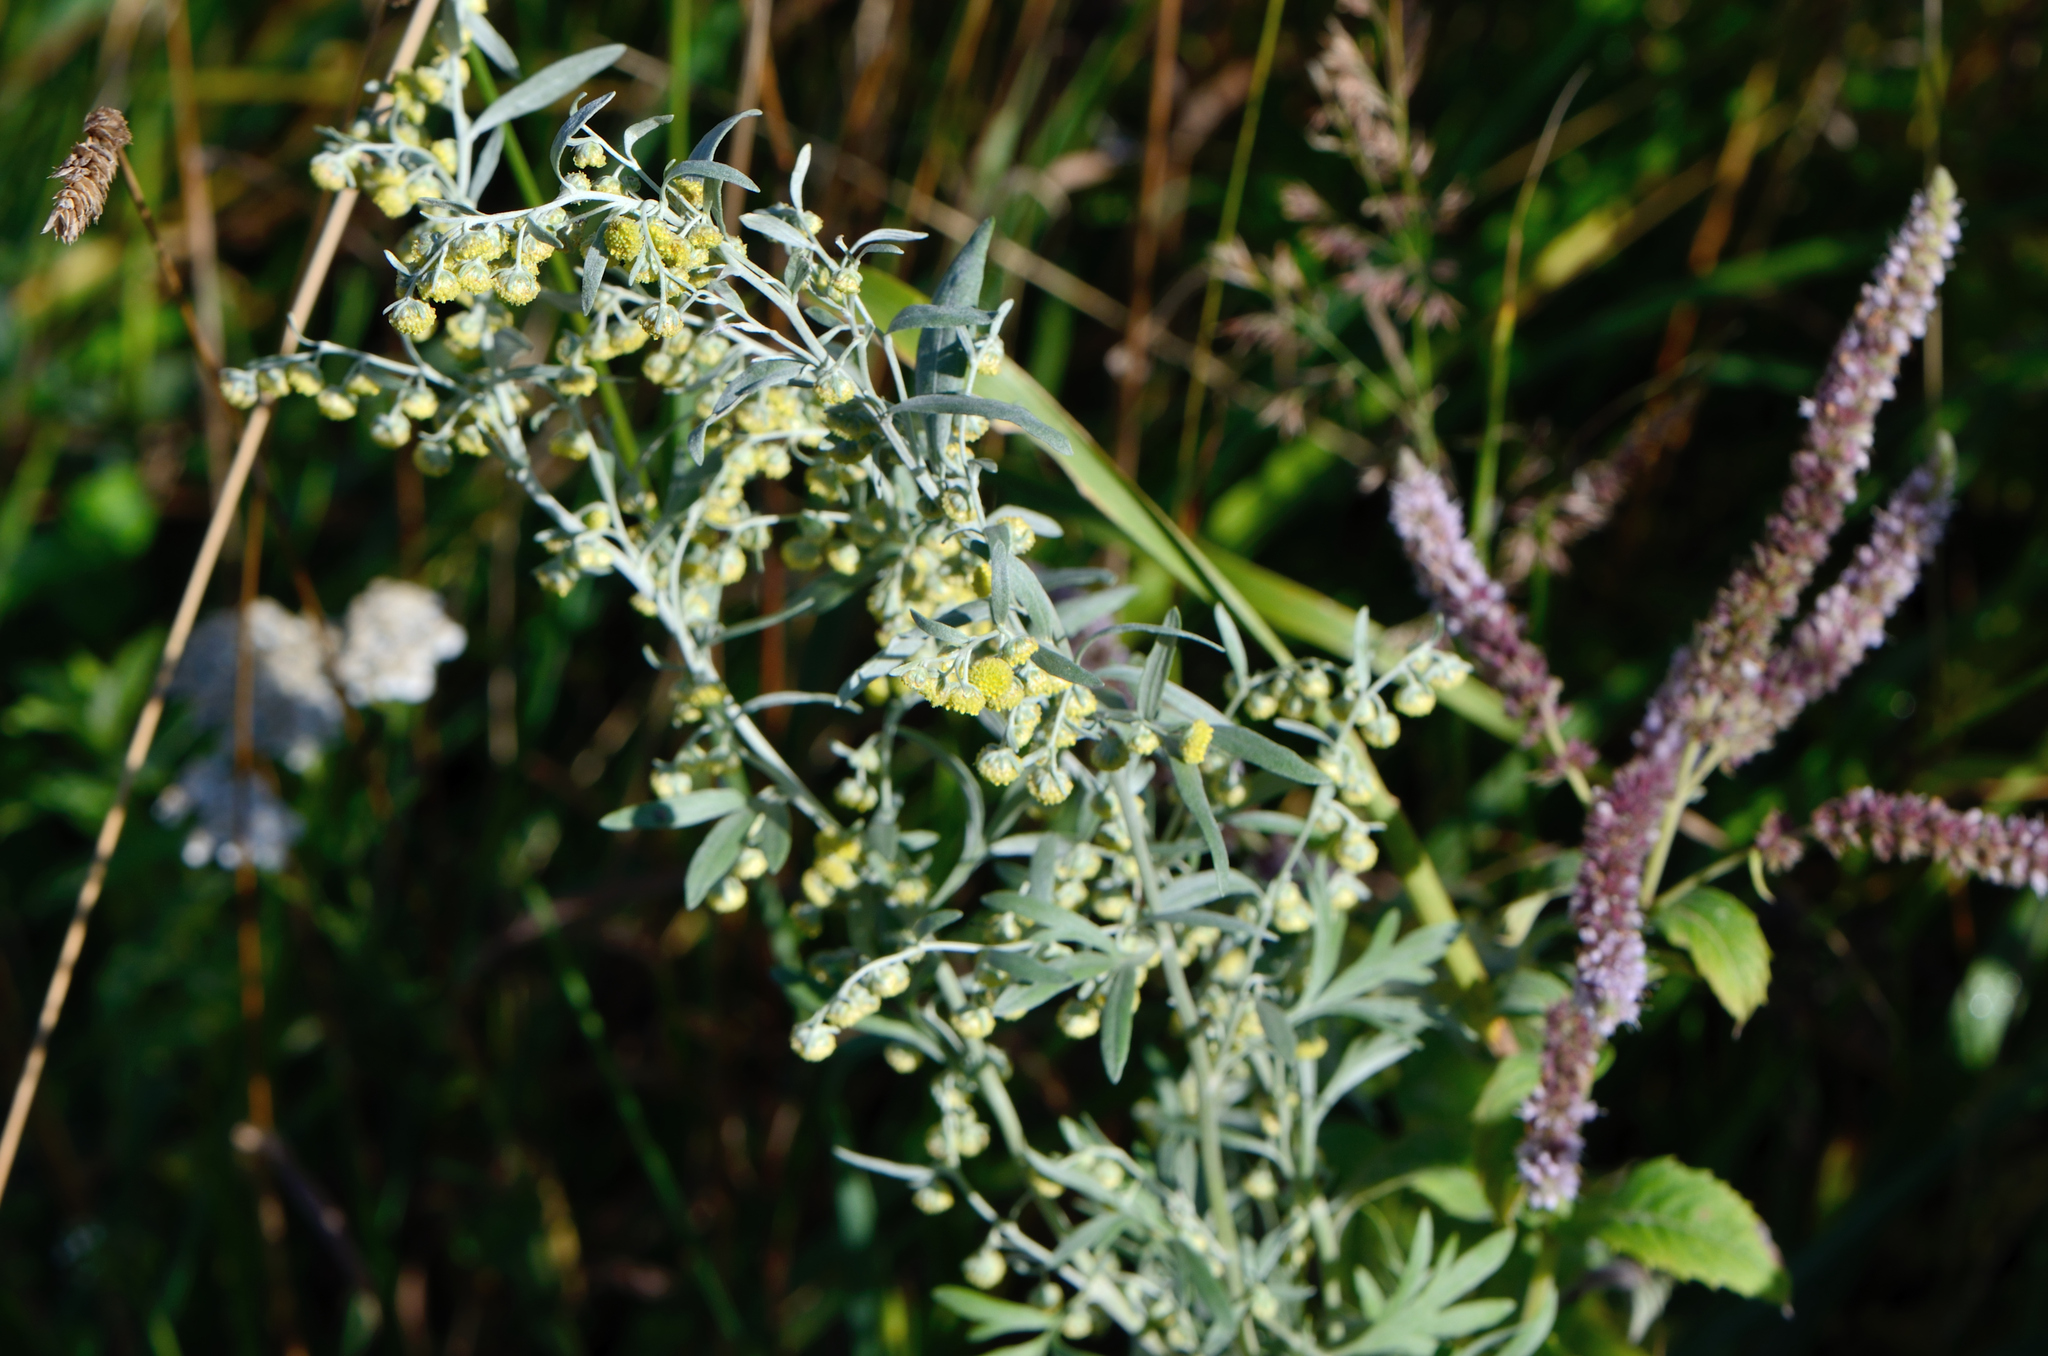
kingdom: Plantae
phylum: Tracheophyta
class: Magnoliopsida
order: Asterales
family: Asteraceae
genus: Artemisia
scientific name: Artemisia absinthium
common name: Wormwood
